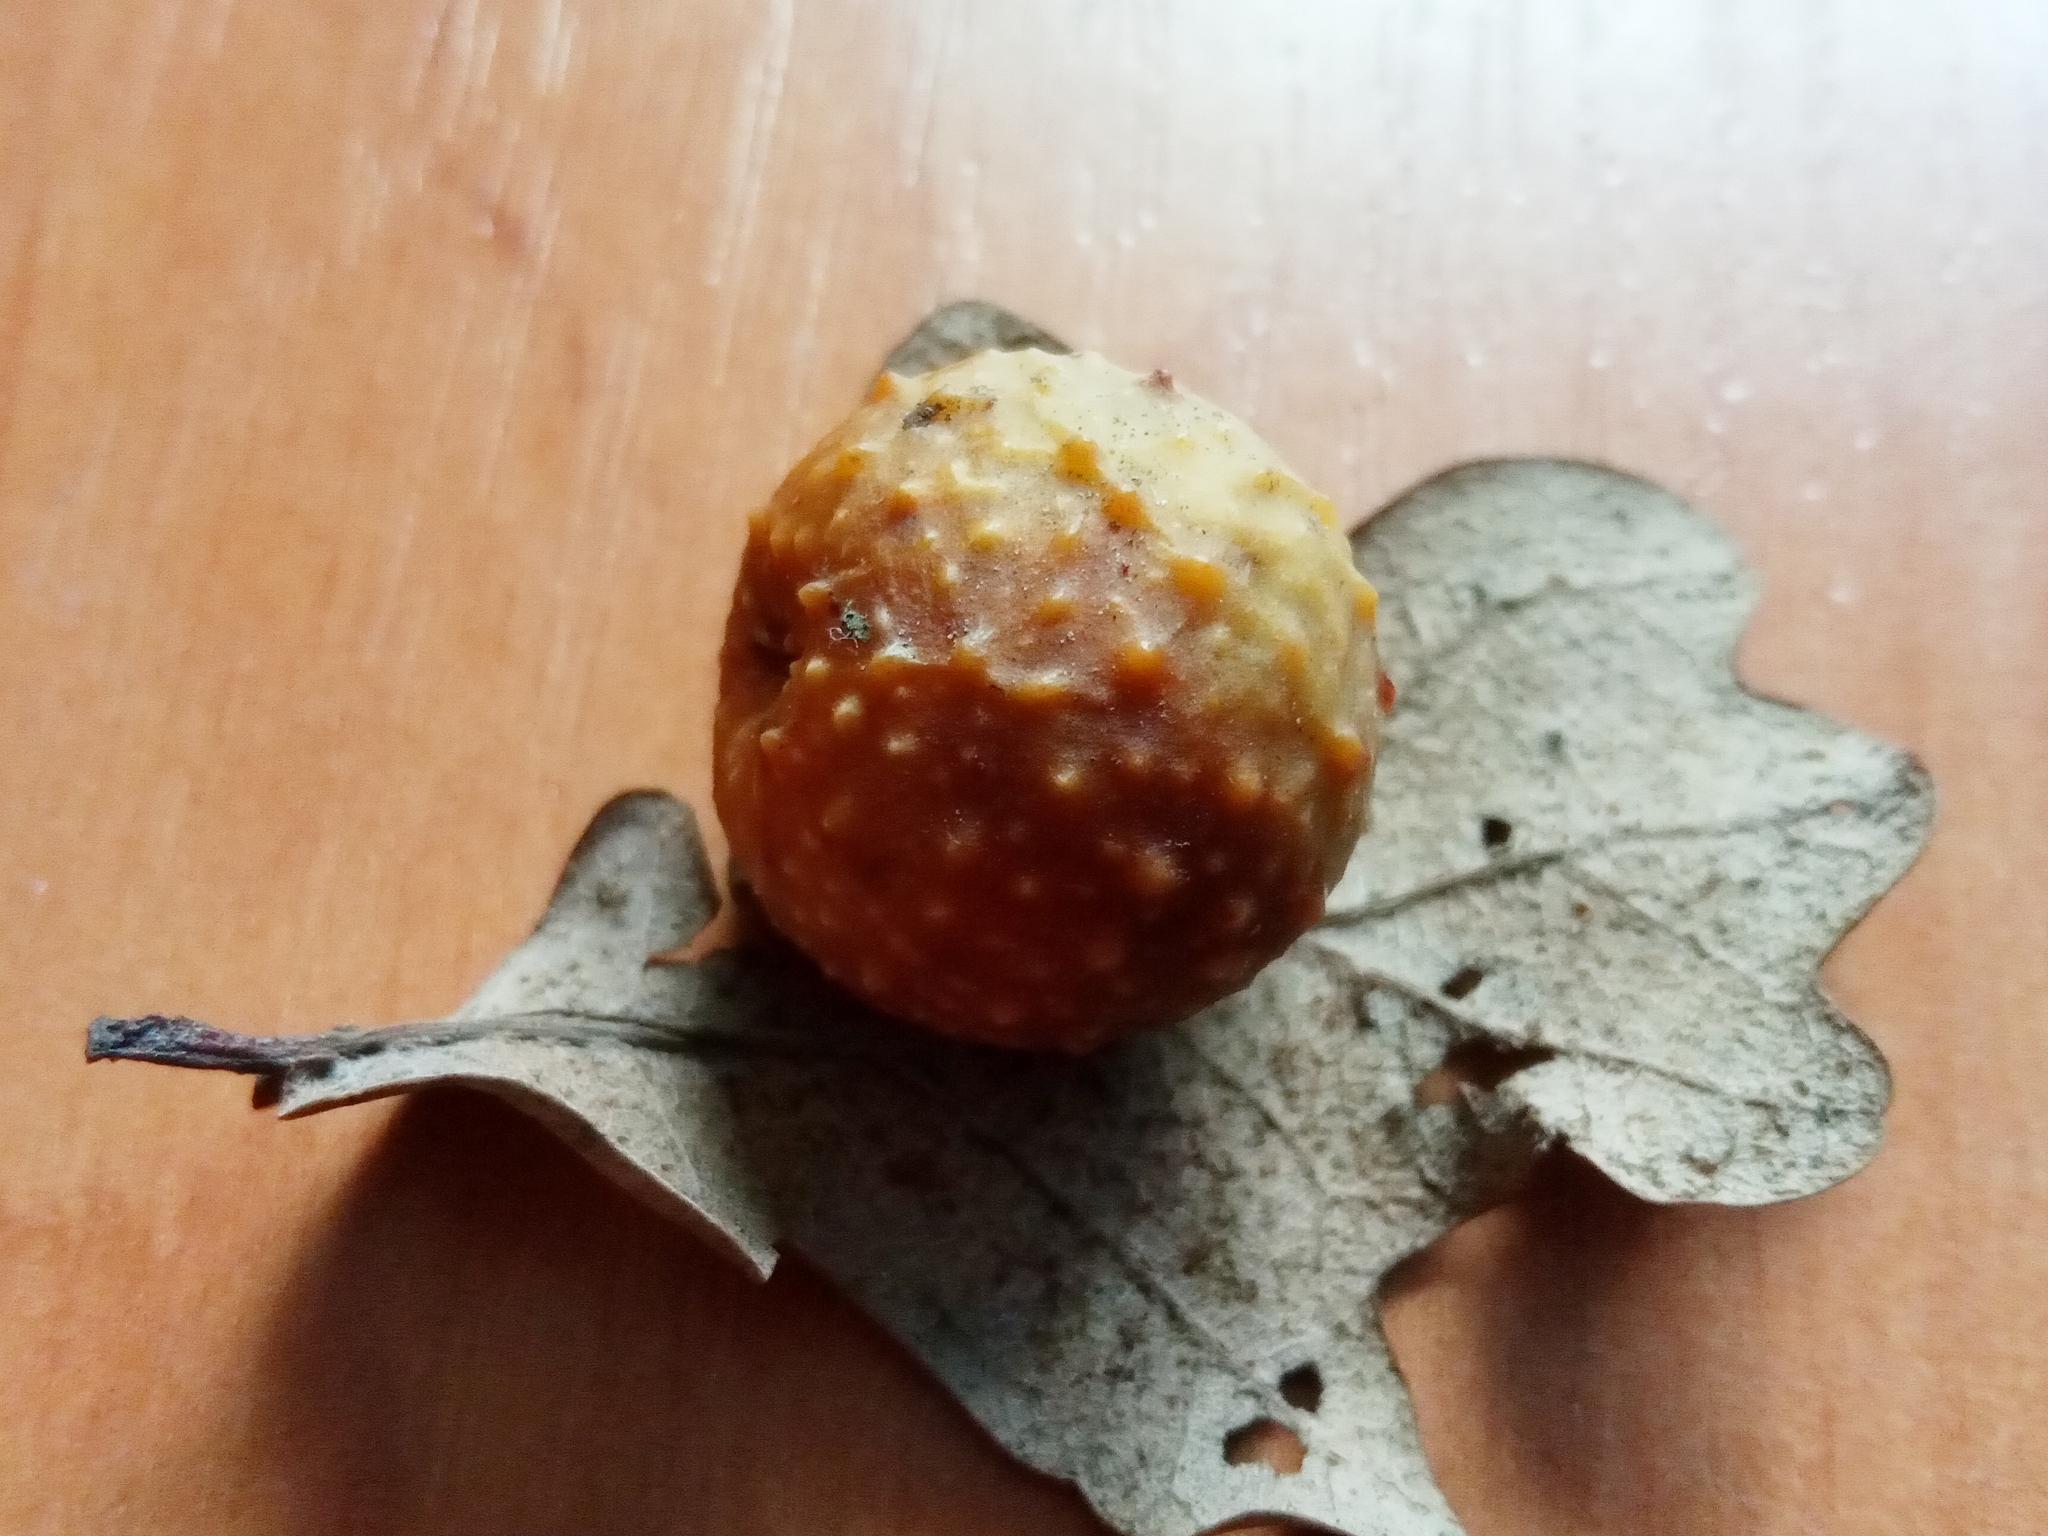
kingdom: Animalia
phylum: Arthropoda
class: Insecta
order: Hymenoptera
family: Cynipidae
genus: Cynips
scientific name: Cynips quercusfolii
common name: Cherry gall
